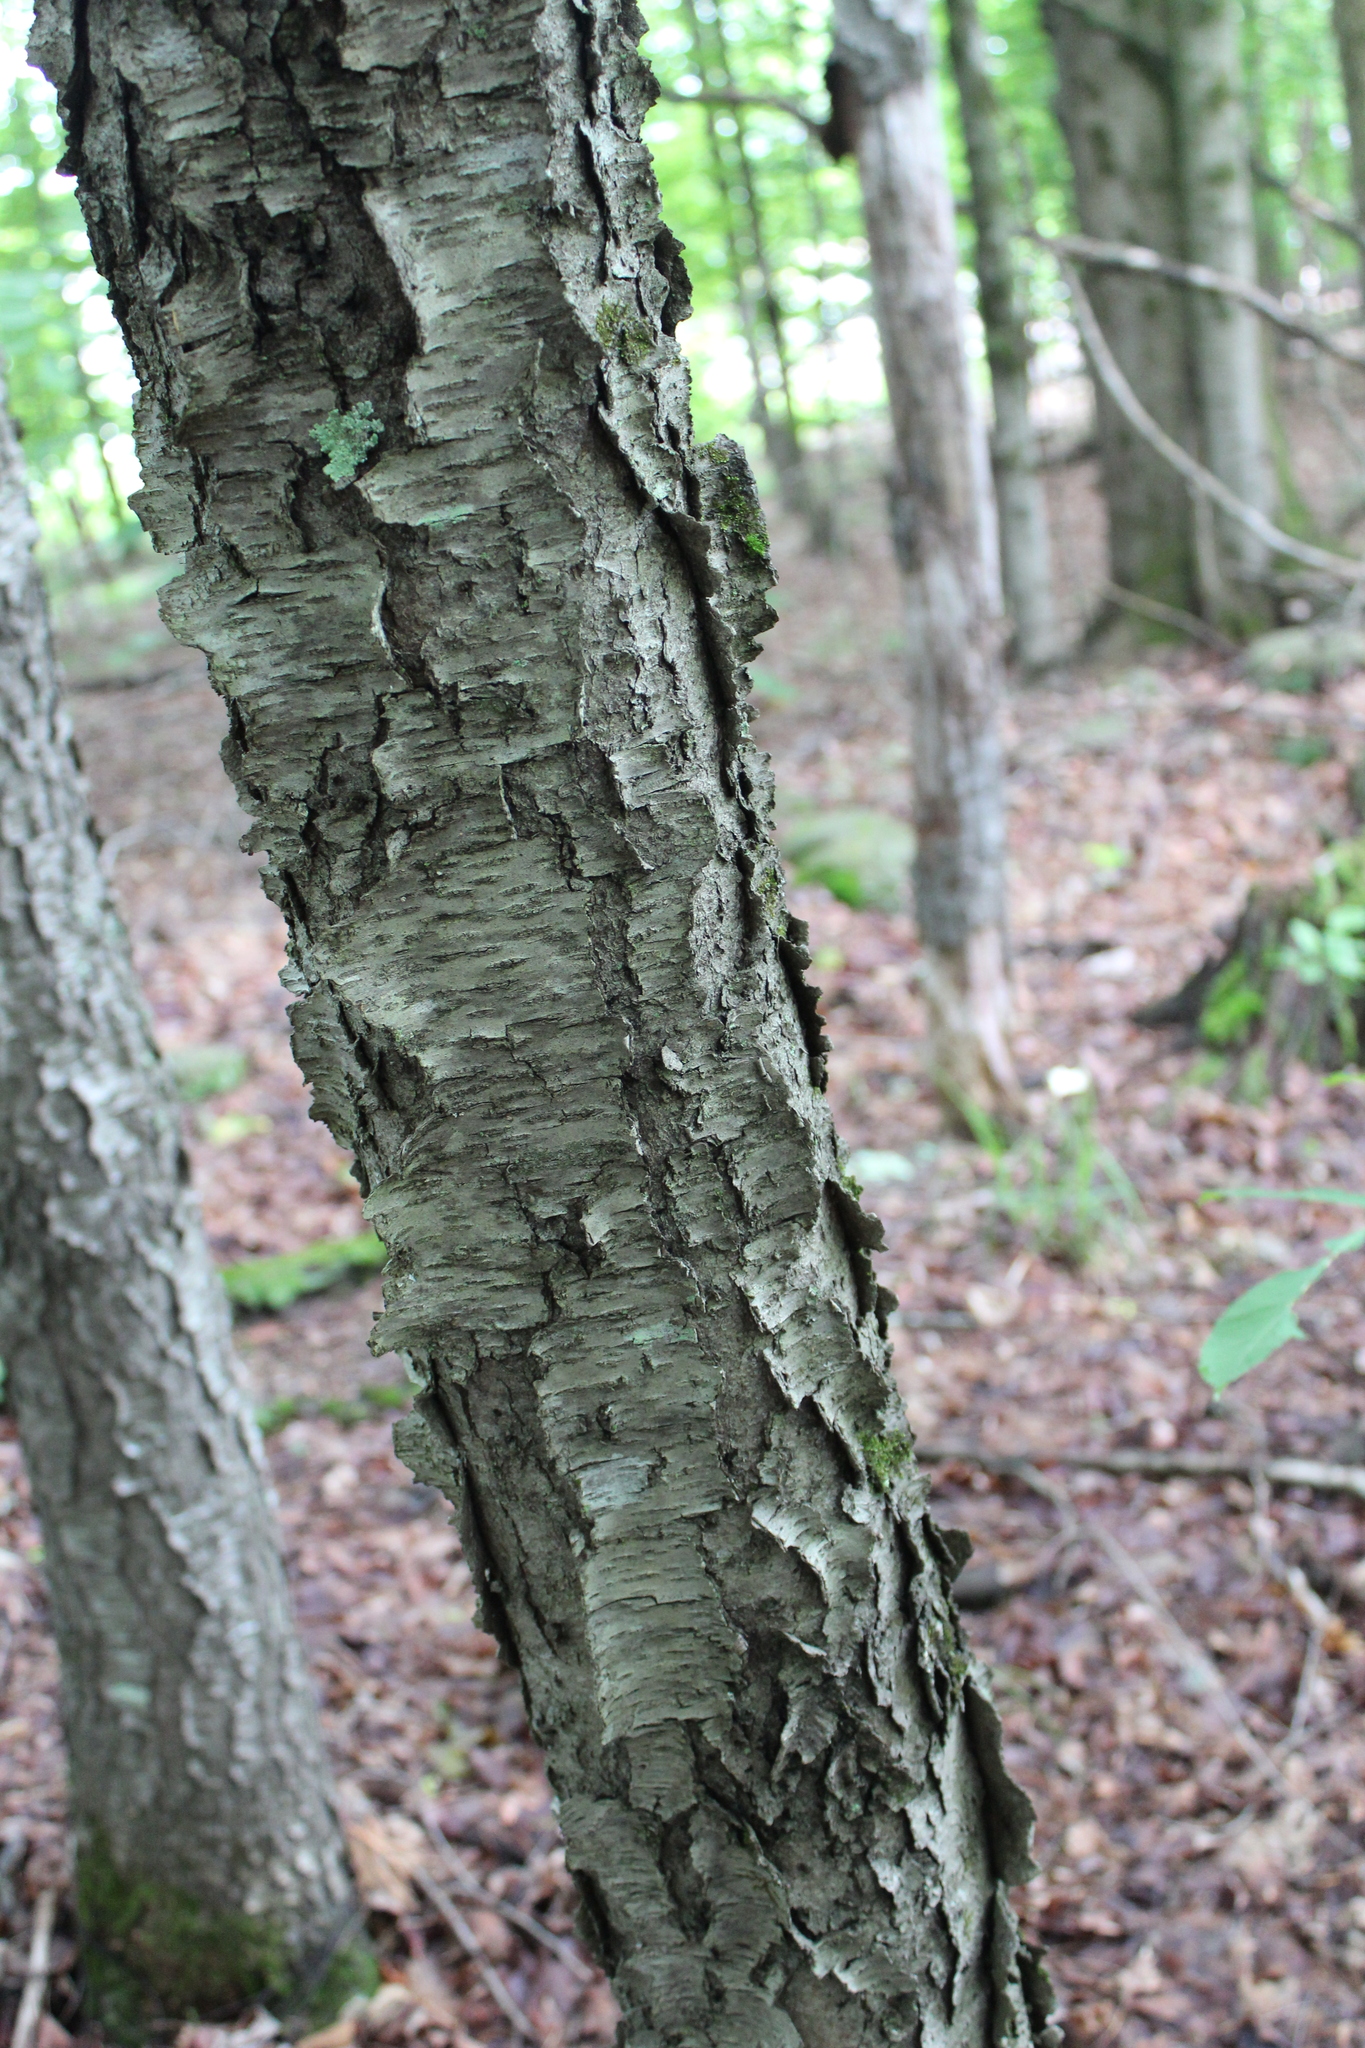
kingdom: Plantae
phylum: Tracheophyta
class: Magnoliopsida
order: Rosales
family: Rosaceae
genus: Prunus
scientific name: Prunus serotina
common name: Black cherry
